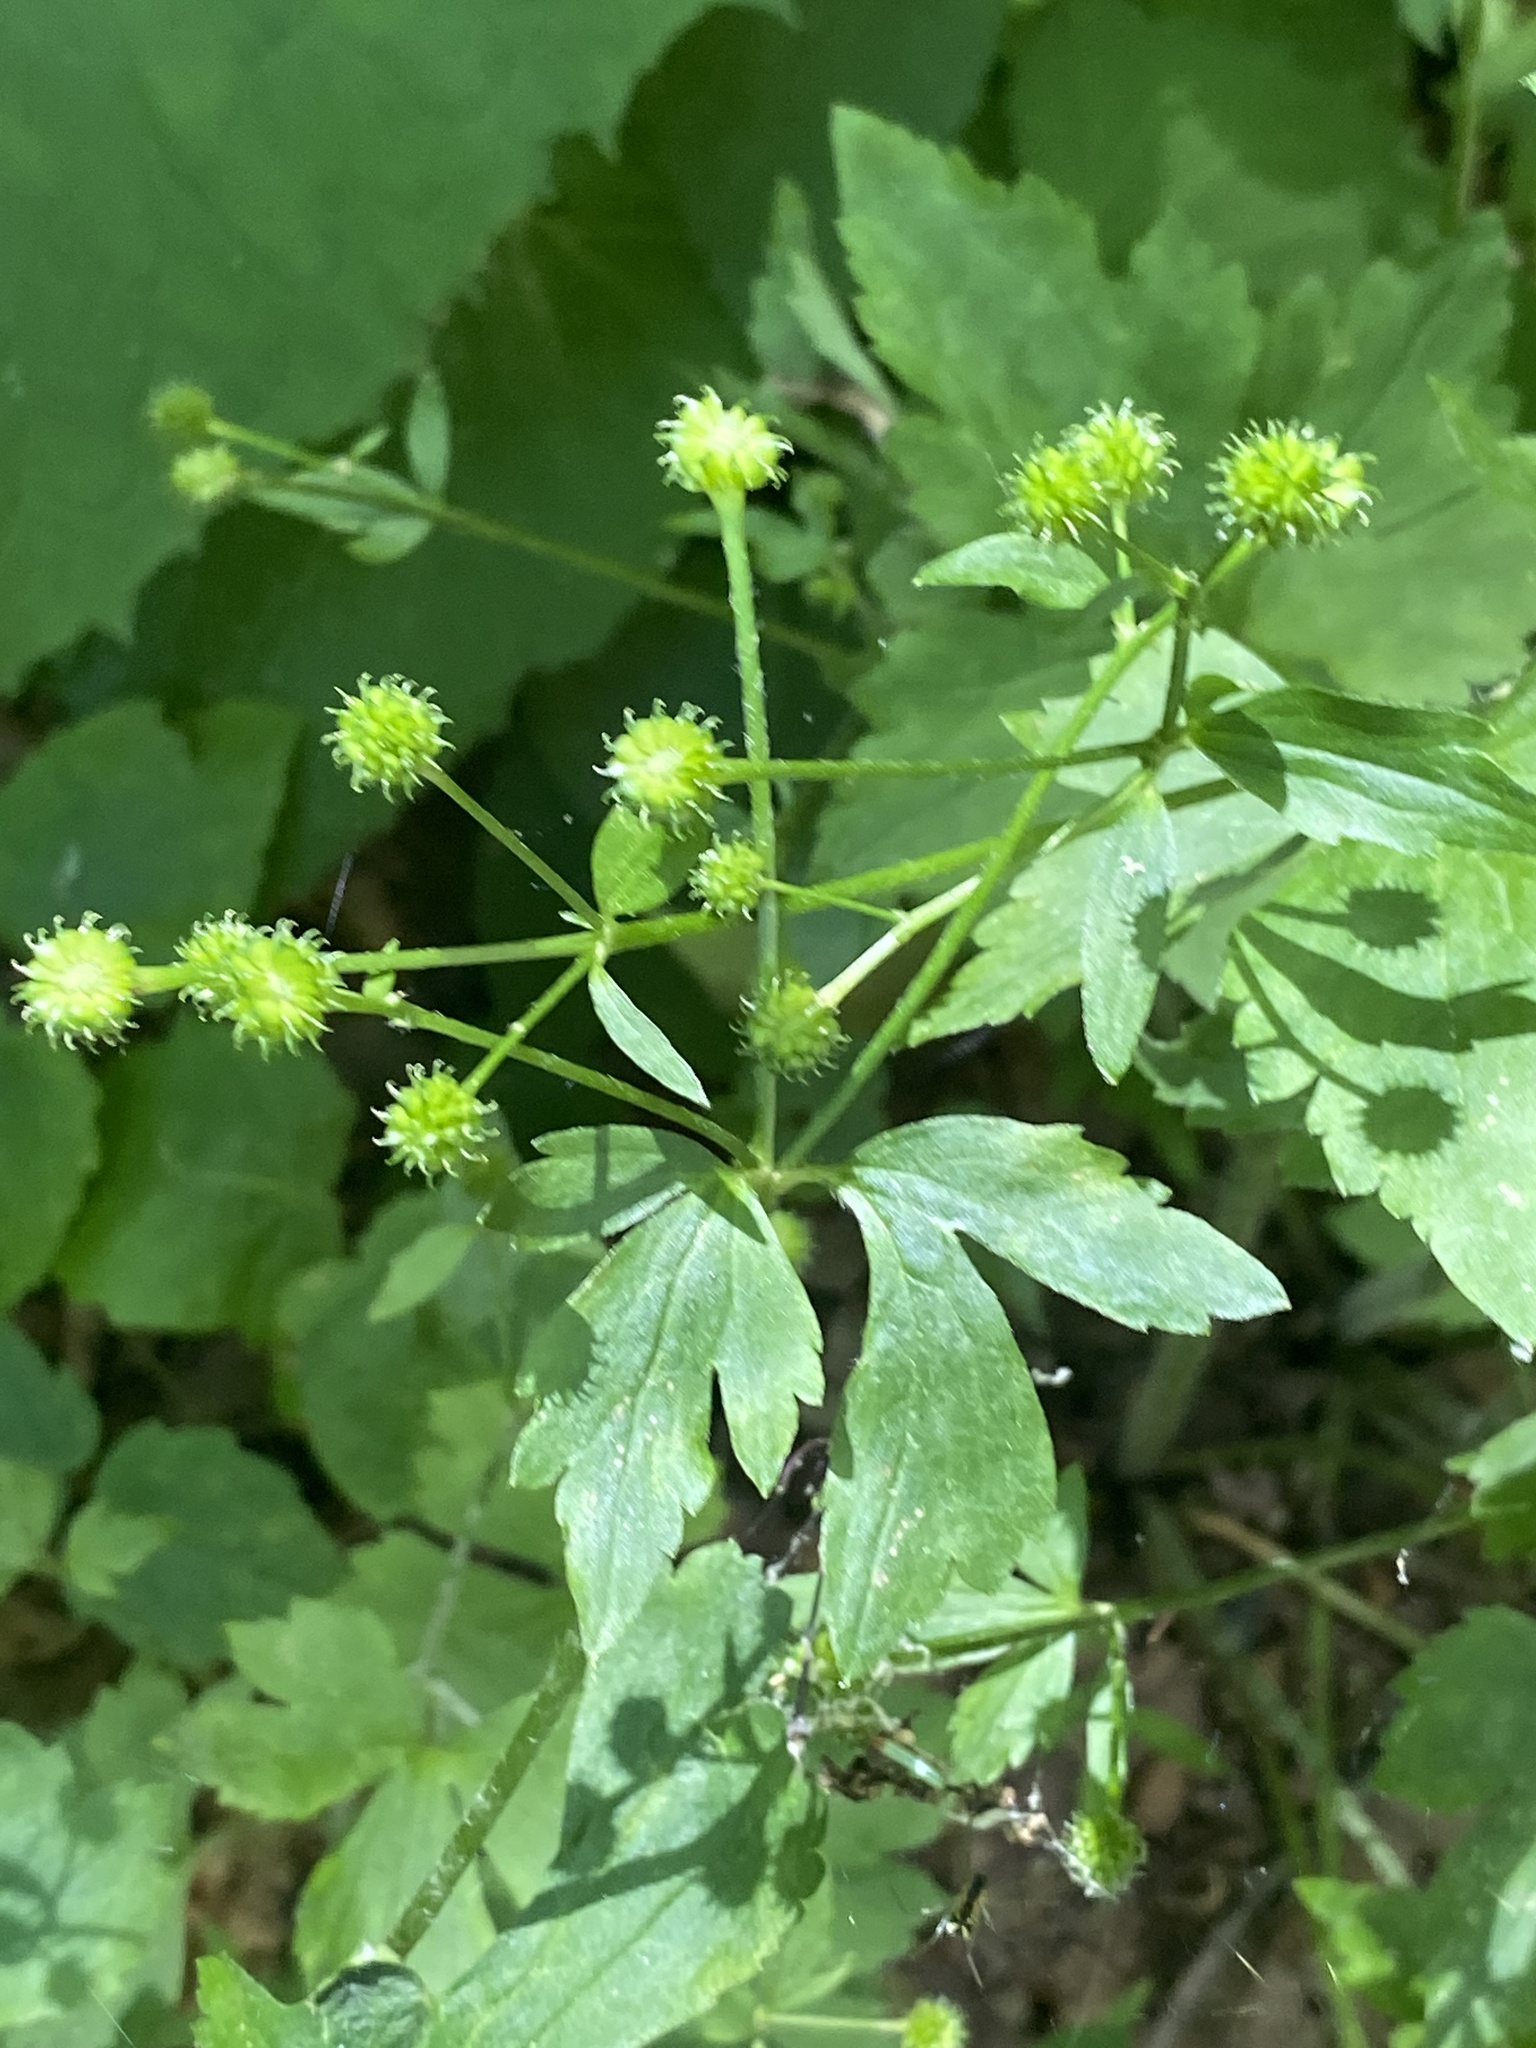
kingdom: Plantae
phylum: Tracheophyta
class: Magnoliopsida
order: Ranunculales
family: Ranunculaceae
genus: Ranunculus
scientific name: Ranunculus recurvatus
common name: Blisterwort
